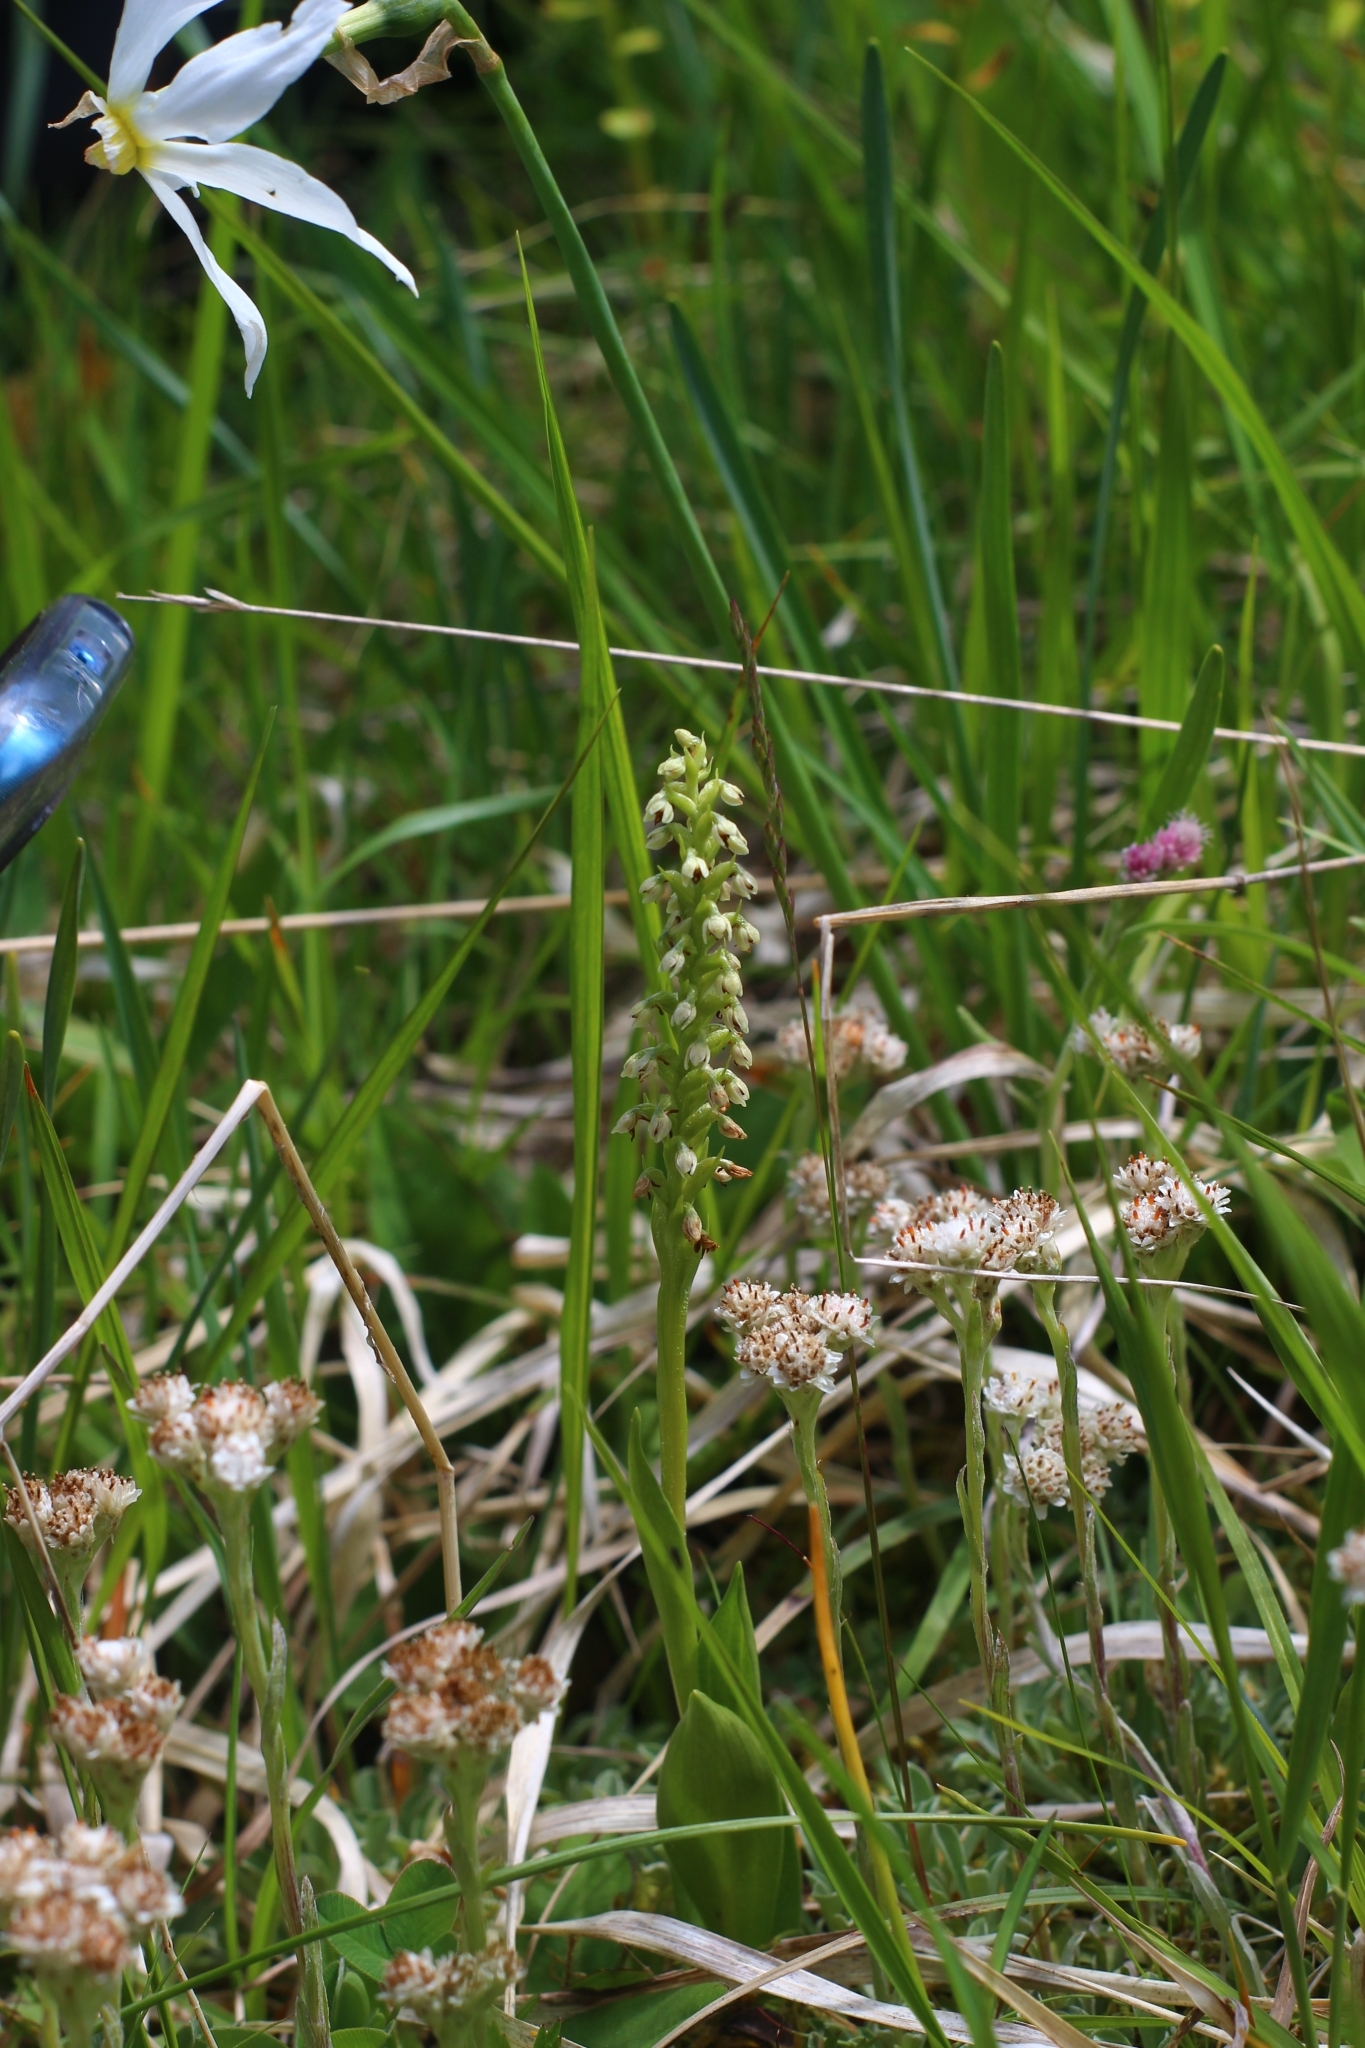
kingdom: Plantae
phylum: Tracheophyta
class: Liliopsida
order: Asparagales
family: Orchidaceae
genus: Pseudorchis
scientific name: Pseudorchis albida
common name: Small-white orchid
